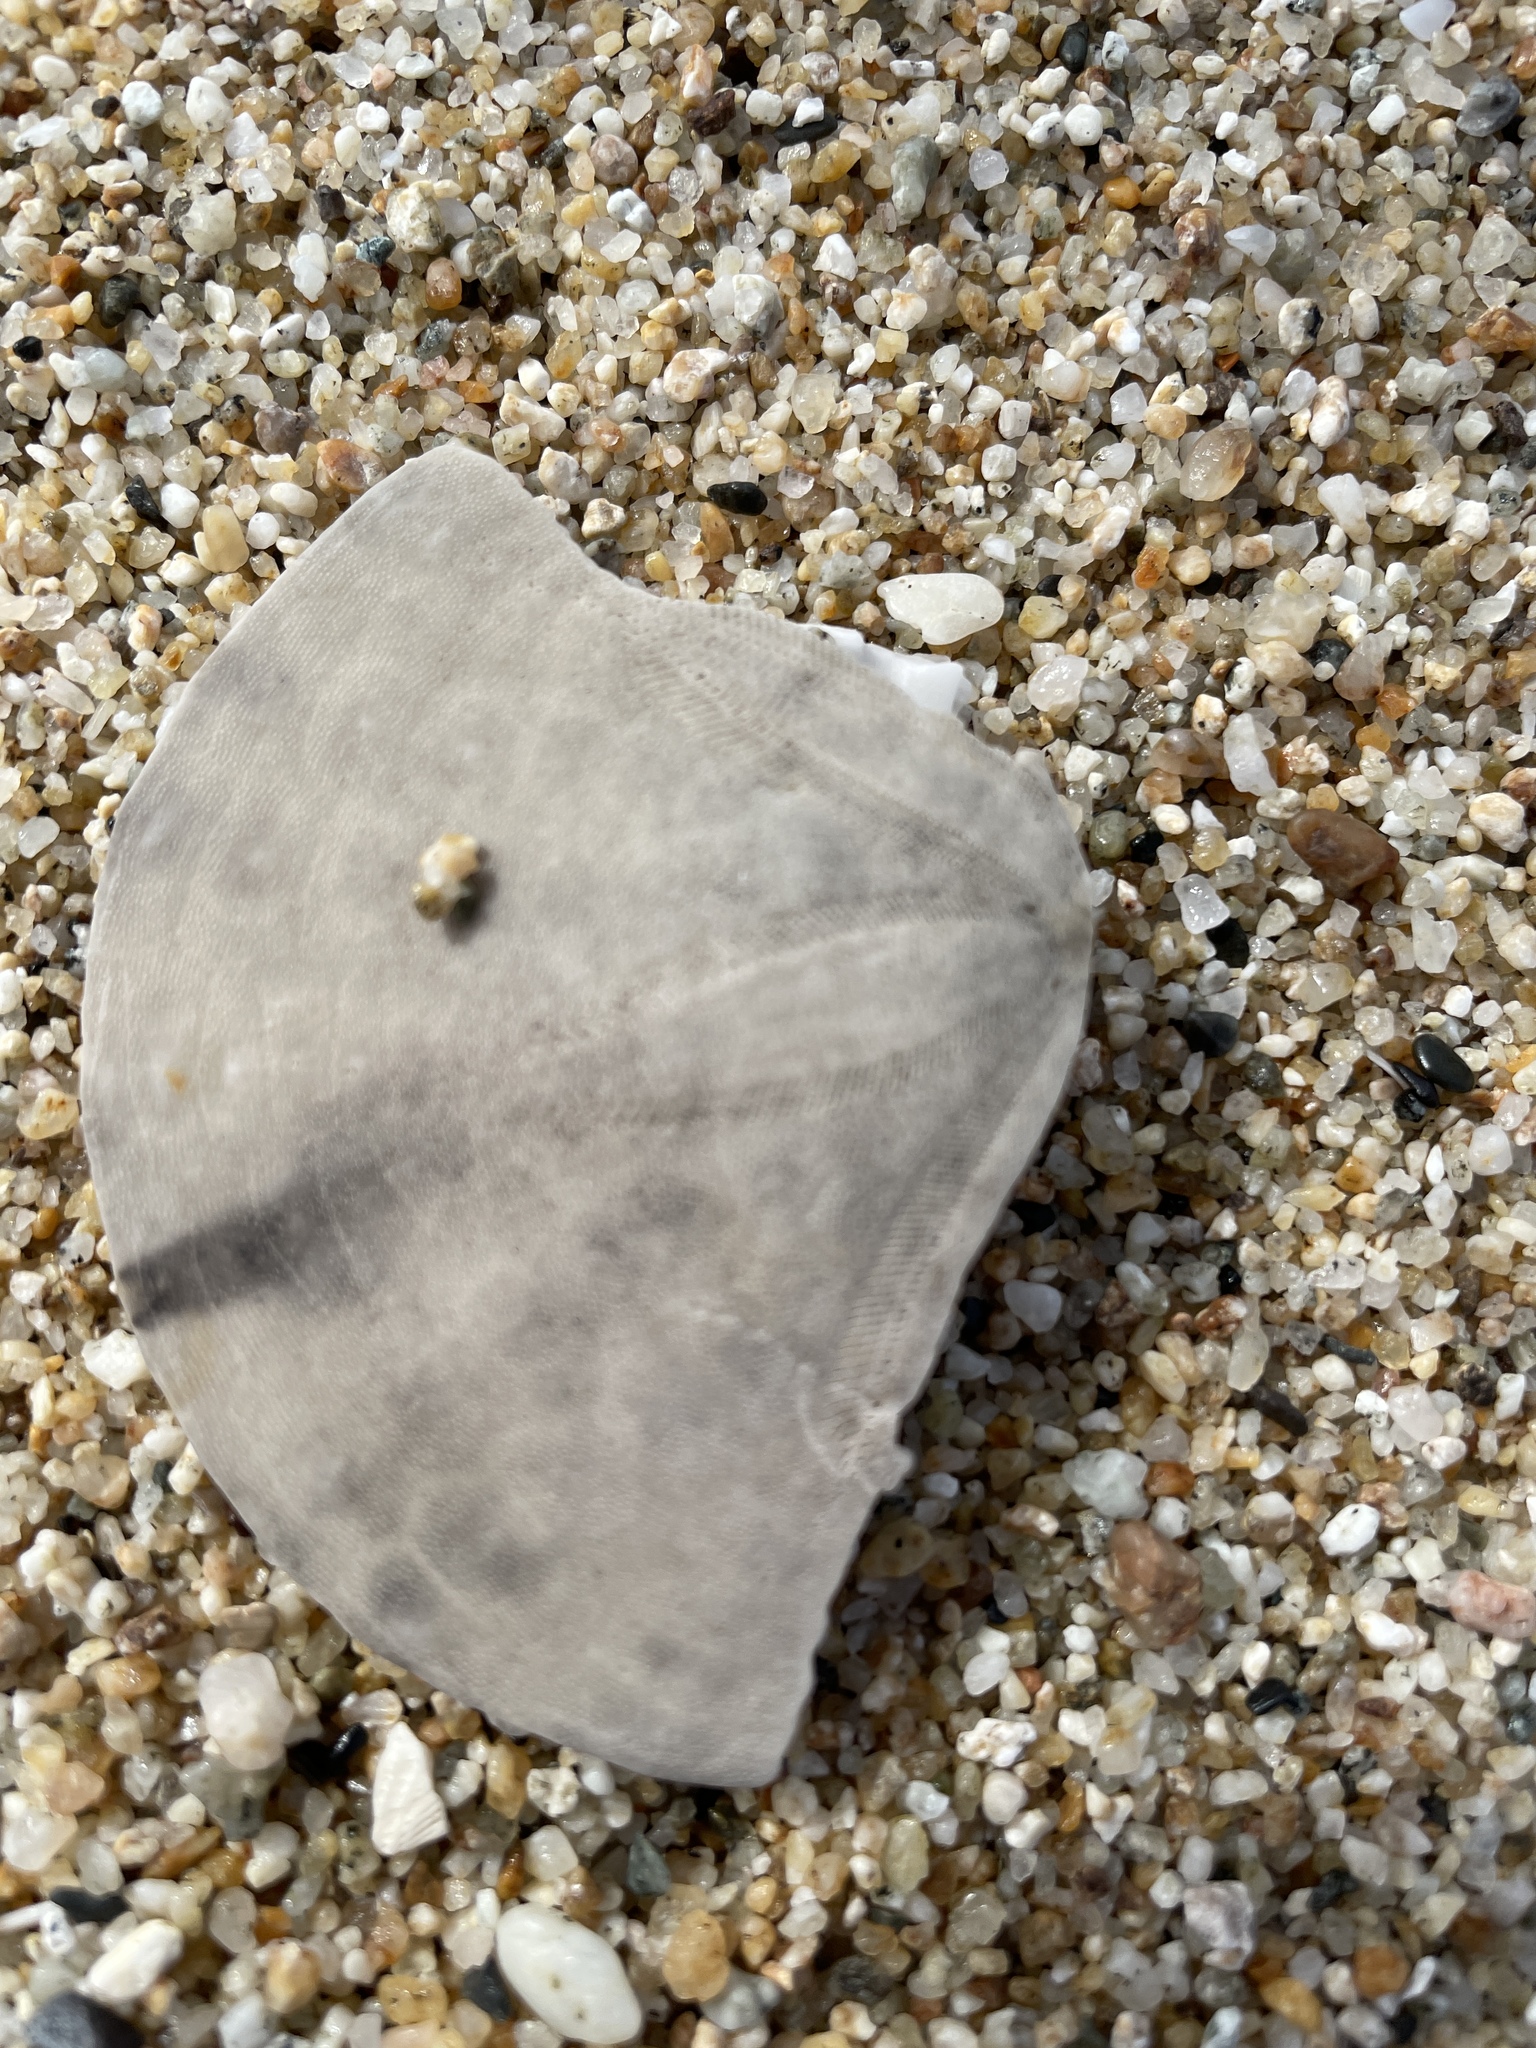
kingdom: Animalia
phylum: Echinodermata
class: Echinoidea
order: Echinolampadacea
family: Dendrasteridae
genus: Dendraster
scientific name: Dendraster excentricus
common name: Eccentric sand dollar sea urchin
